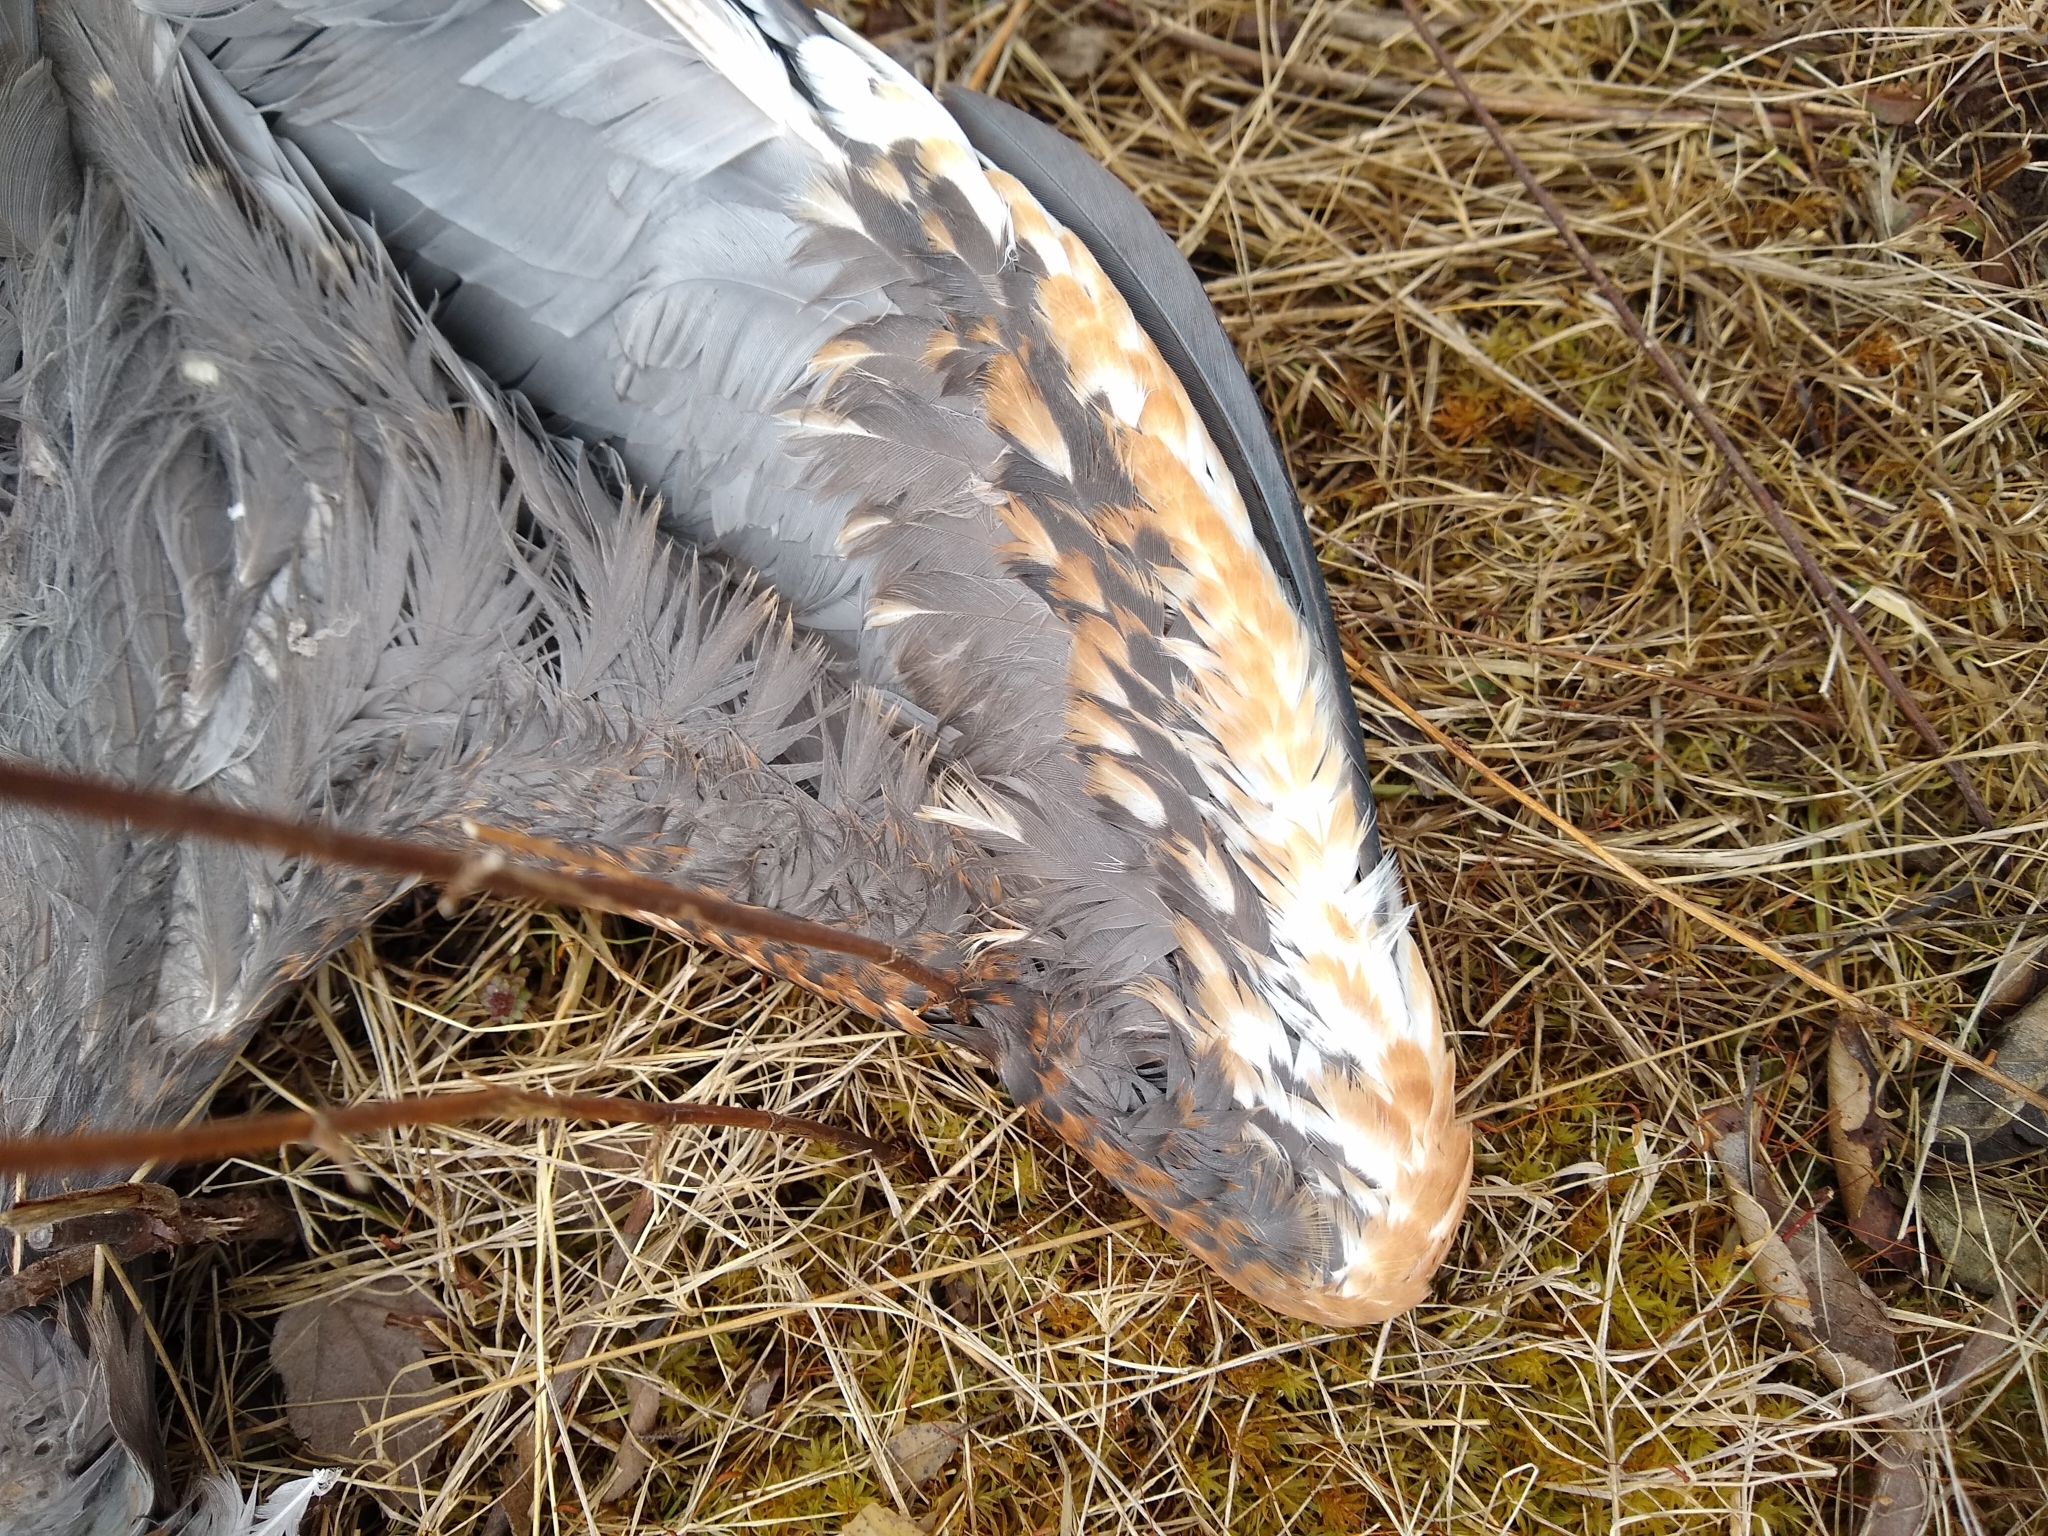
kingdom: Animalia
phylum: Chordata
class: Aves
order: Pelecaniformes
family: Ardeidae
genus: Ardea
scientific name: Ardea herodias
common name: Great blue heron
